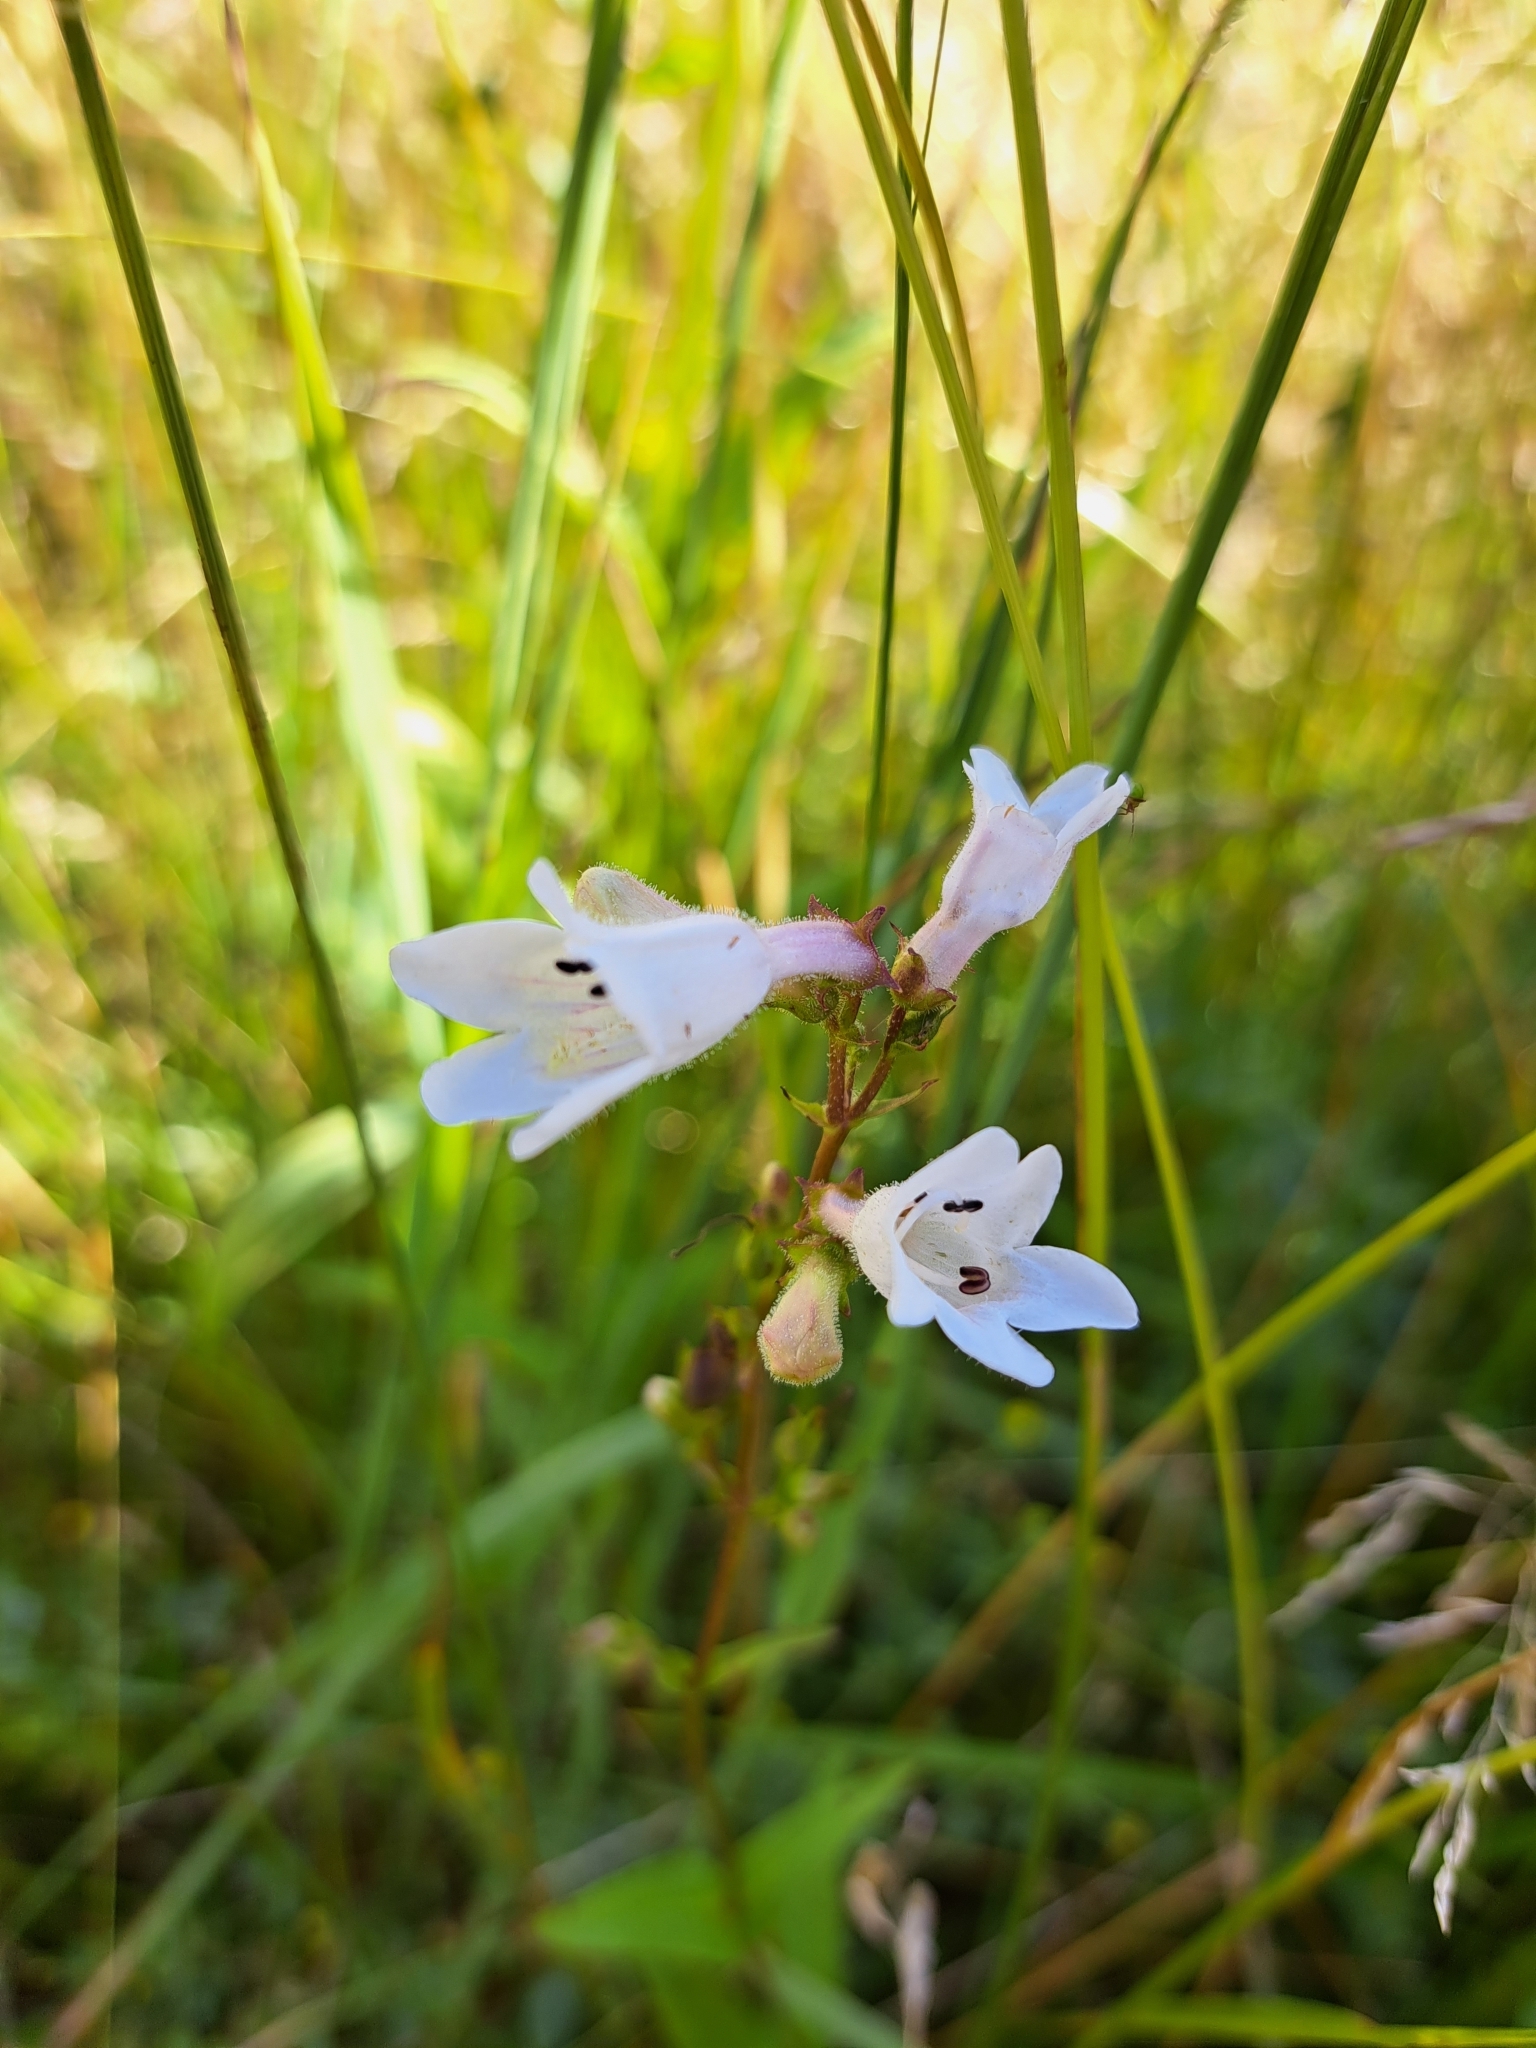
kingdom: Plantae
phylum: Tracheophyta
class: Magnoliopsida
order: Lamiales
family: Plantaginaceae
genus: Penstemon
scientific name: Penstemon digitalis
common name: Foxglove beardtongue
